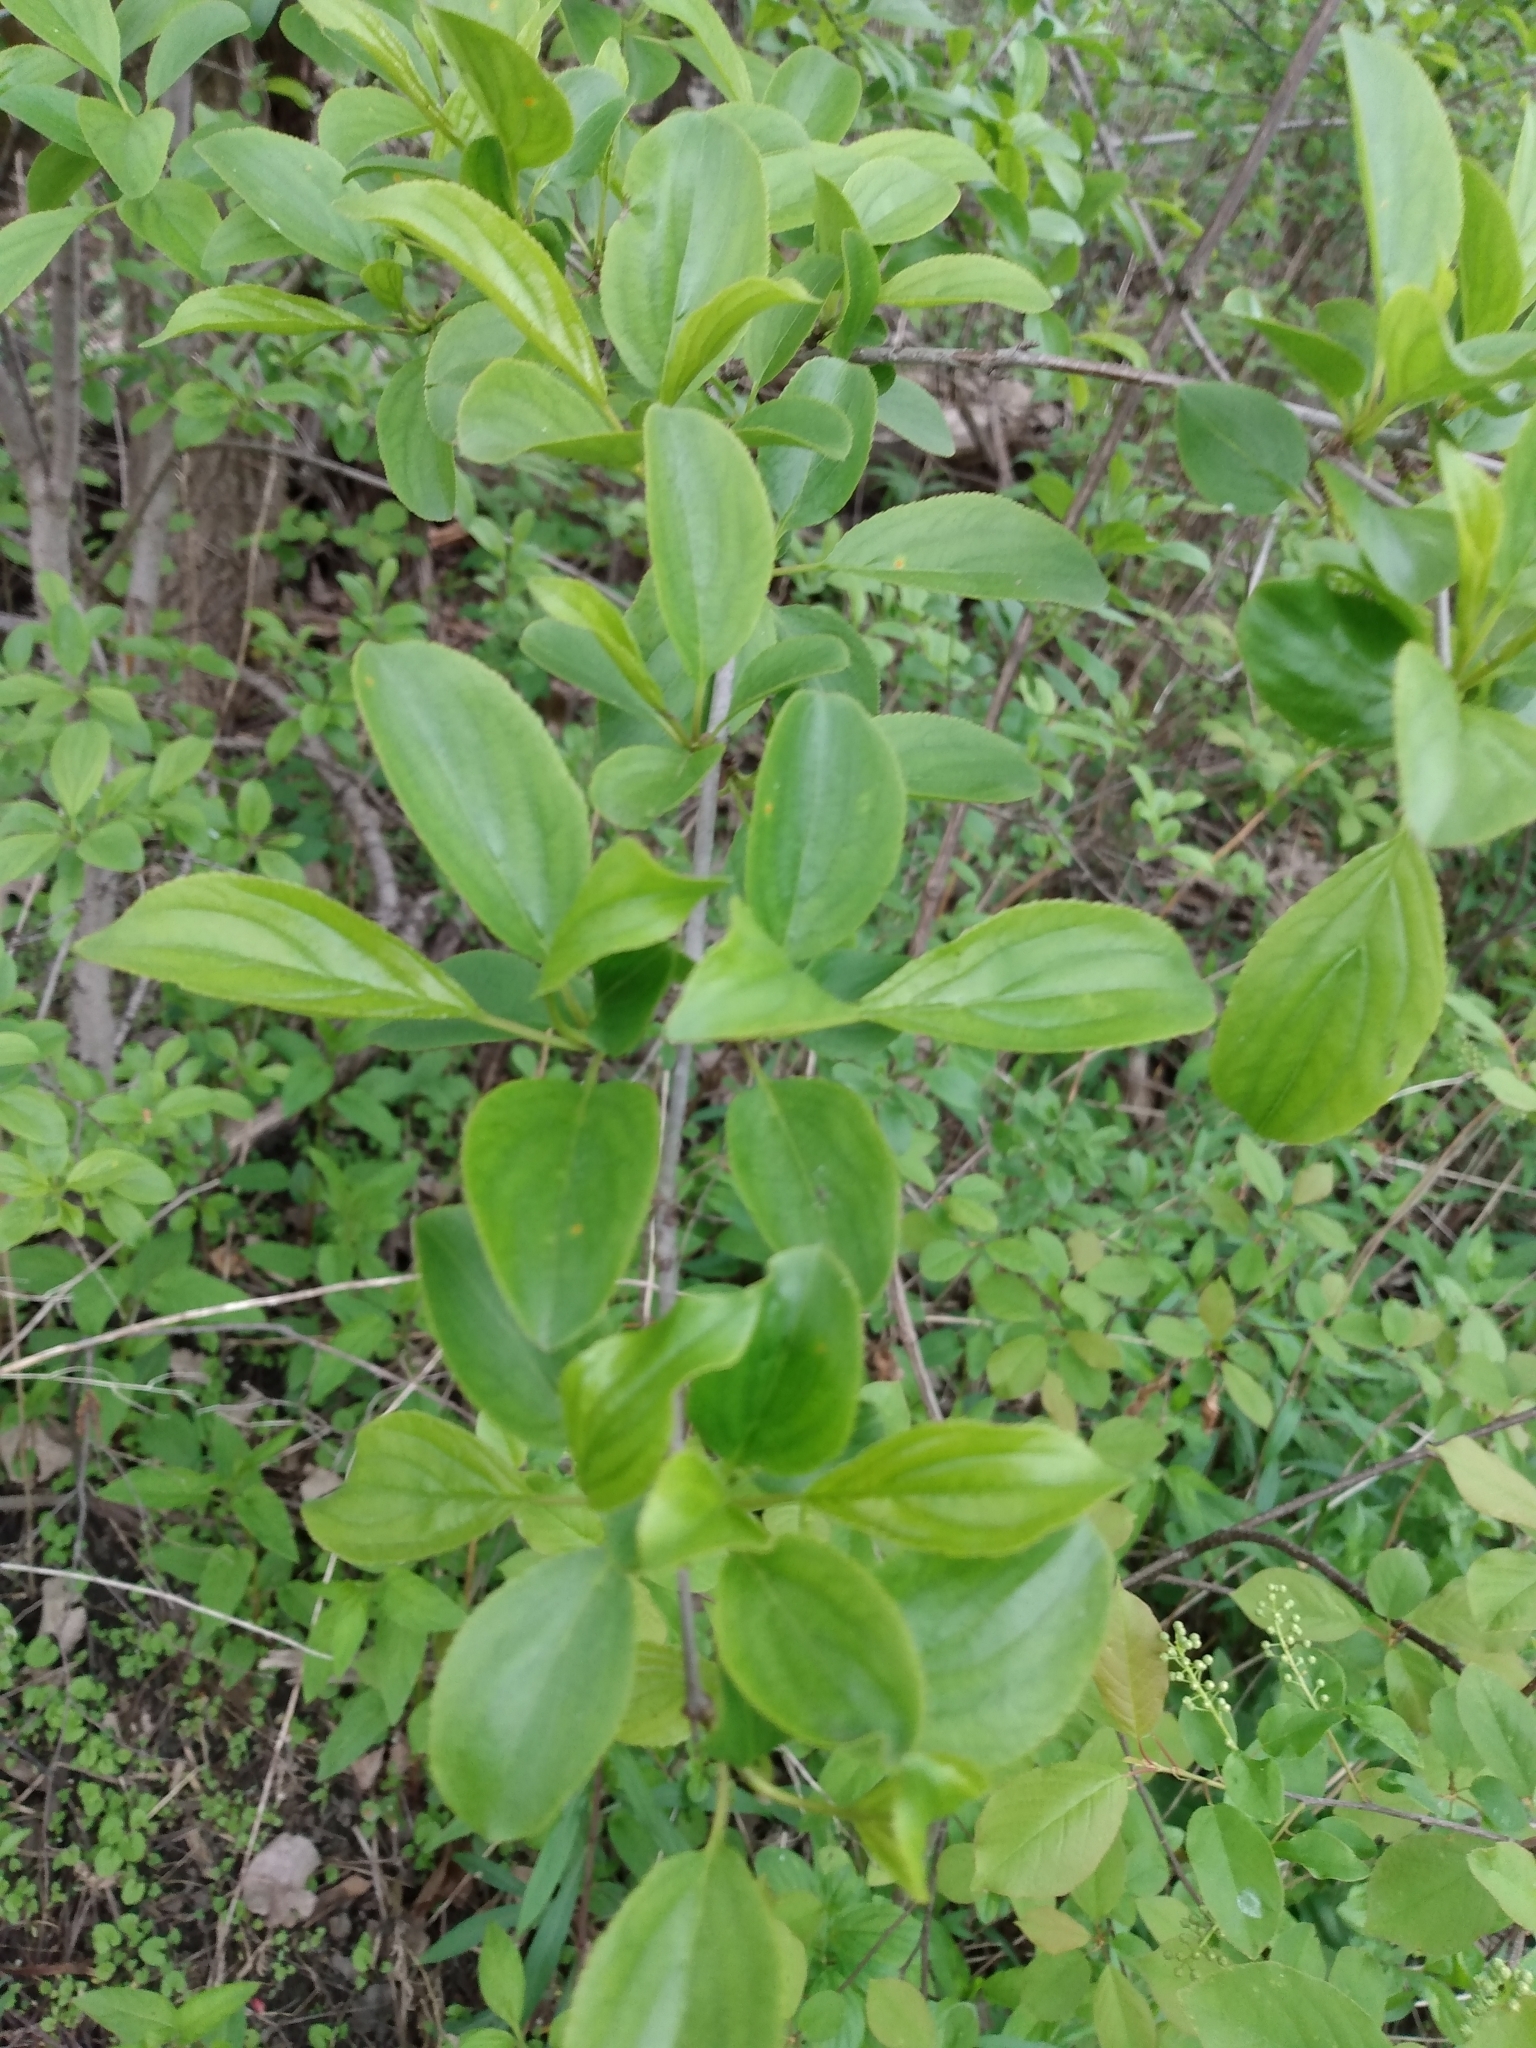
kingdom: Plantae
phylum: Tracheophyta
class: Magnoliopsida
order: Rosales
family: Rhamnaceae
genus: Rhamnus
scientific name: Rhamnus cathartica
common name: Common buckthorn
